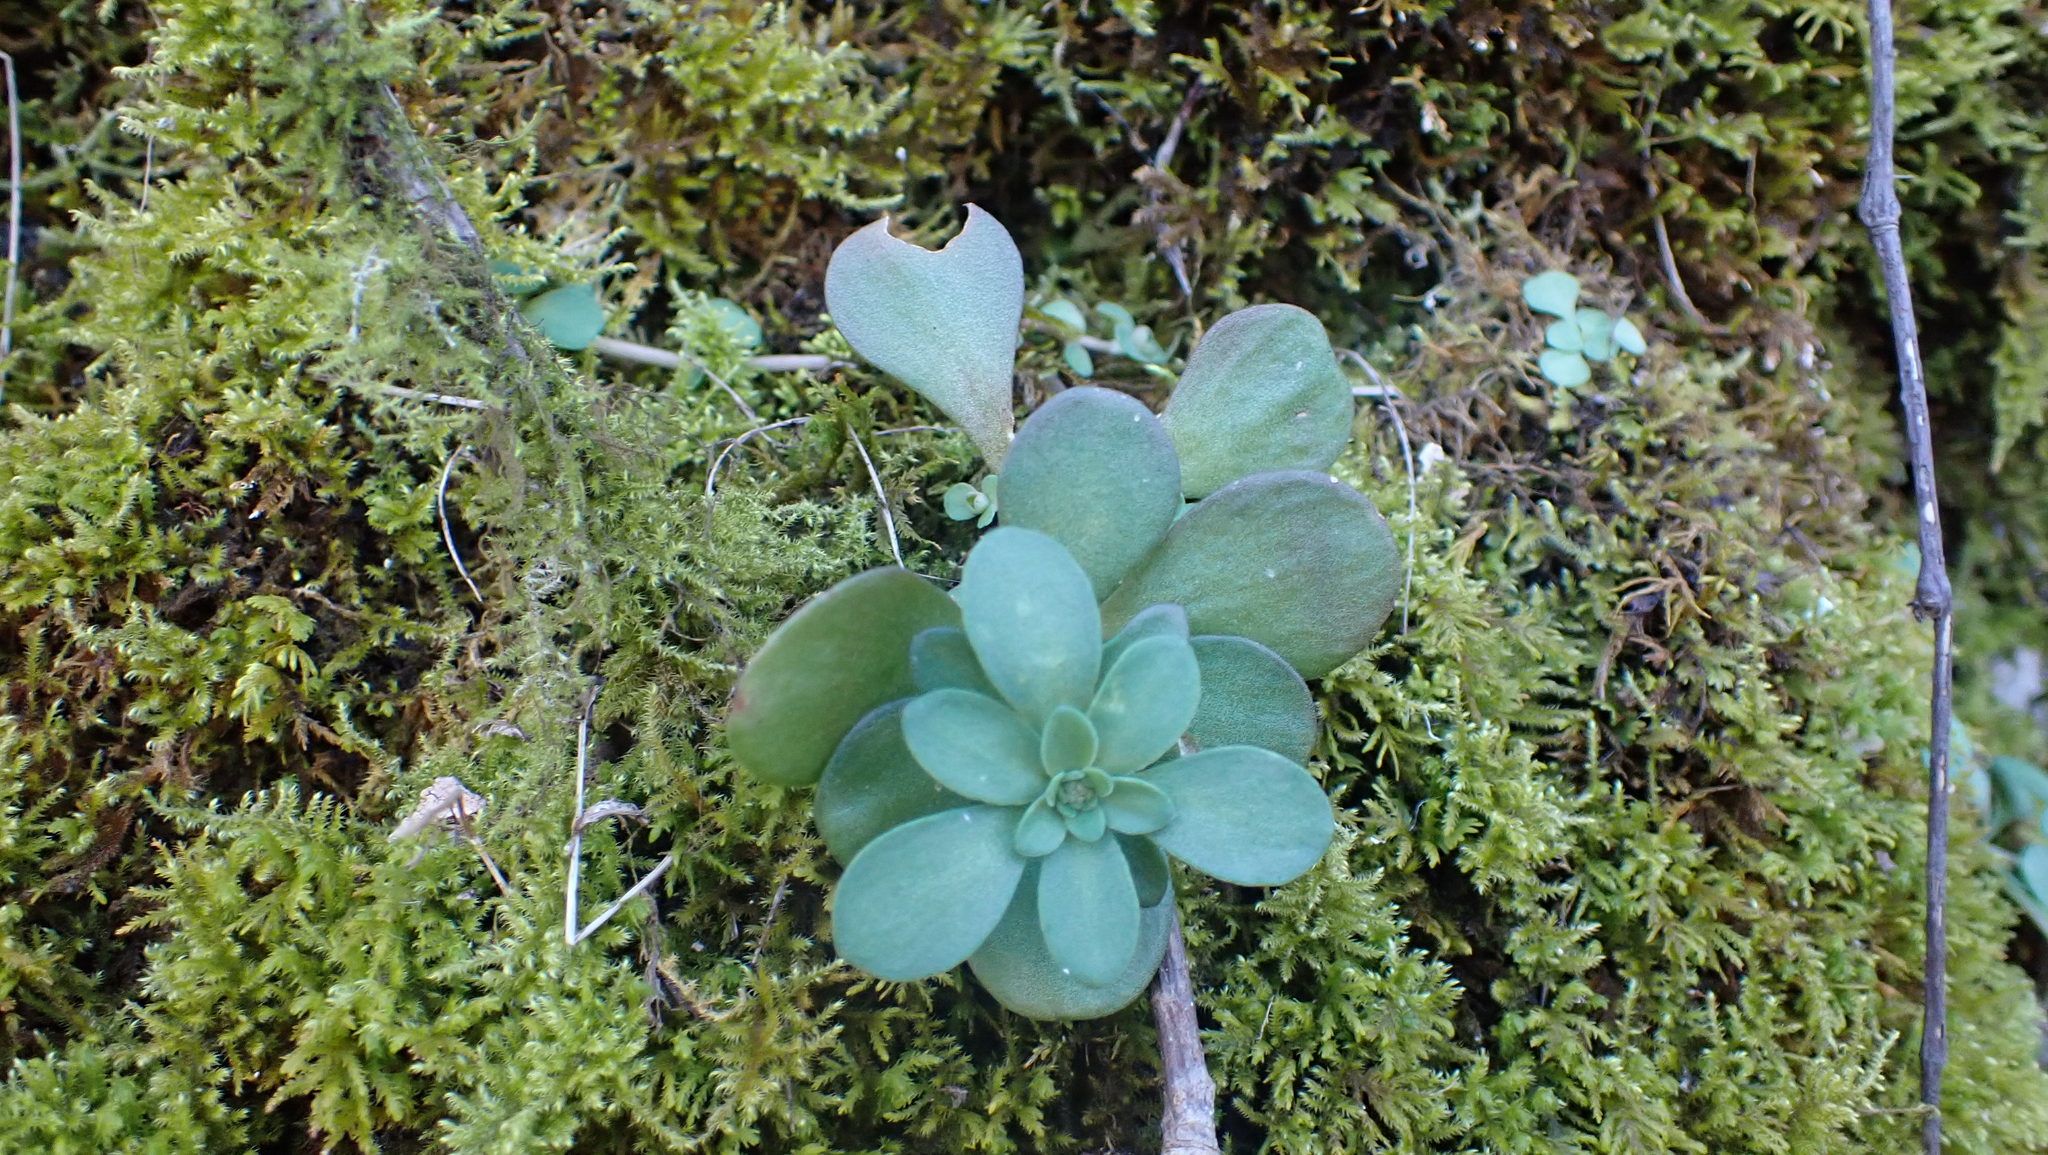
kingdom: Plantae
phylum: Tracheophyta
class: Magnoliopsida
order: Saxifragales
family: Crassulaceae
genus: Sedum
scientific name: Sedum ternatum
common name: Wild stonecrop
